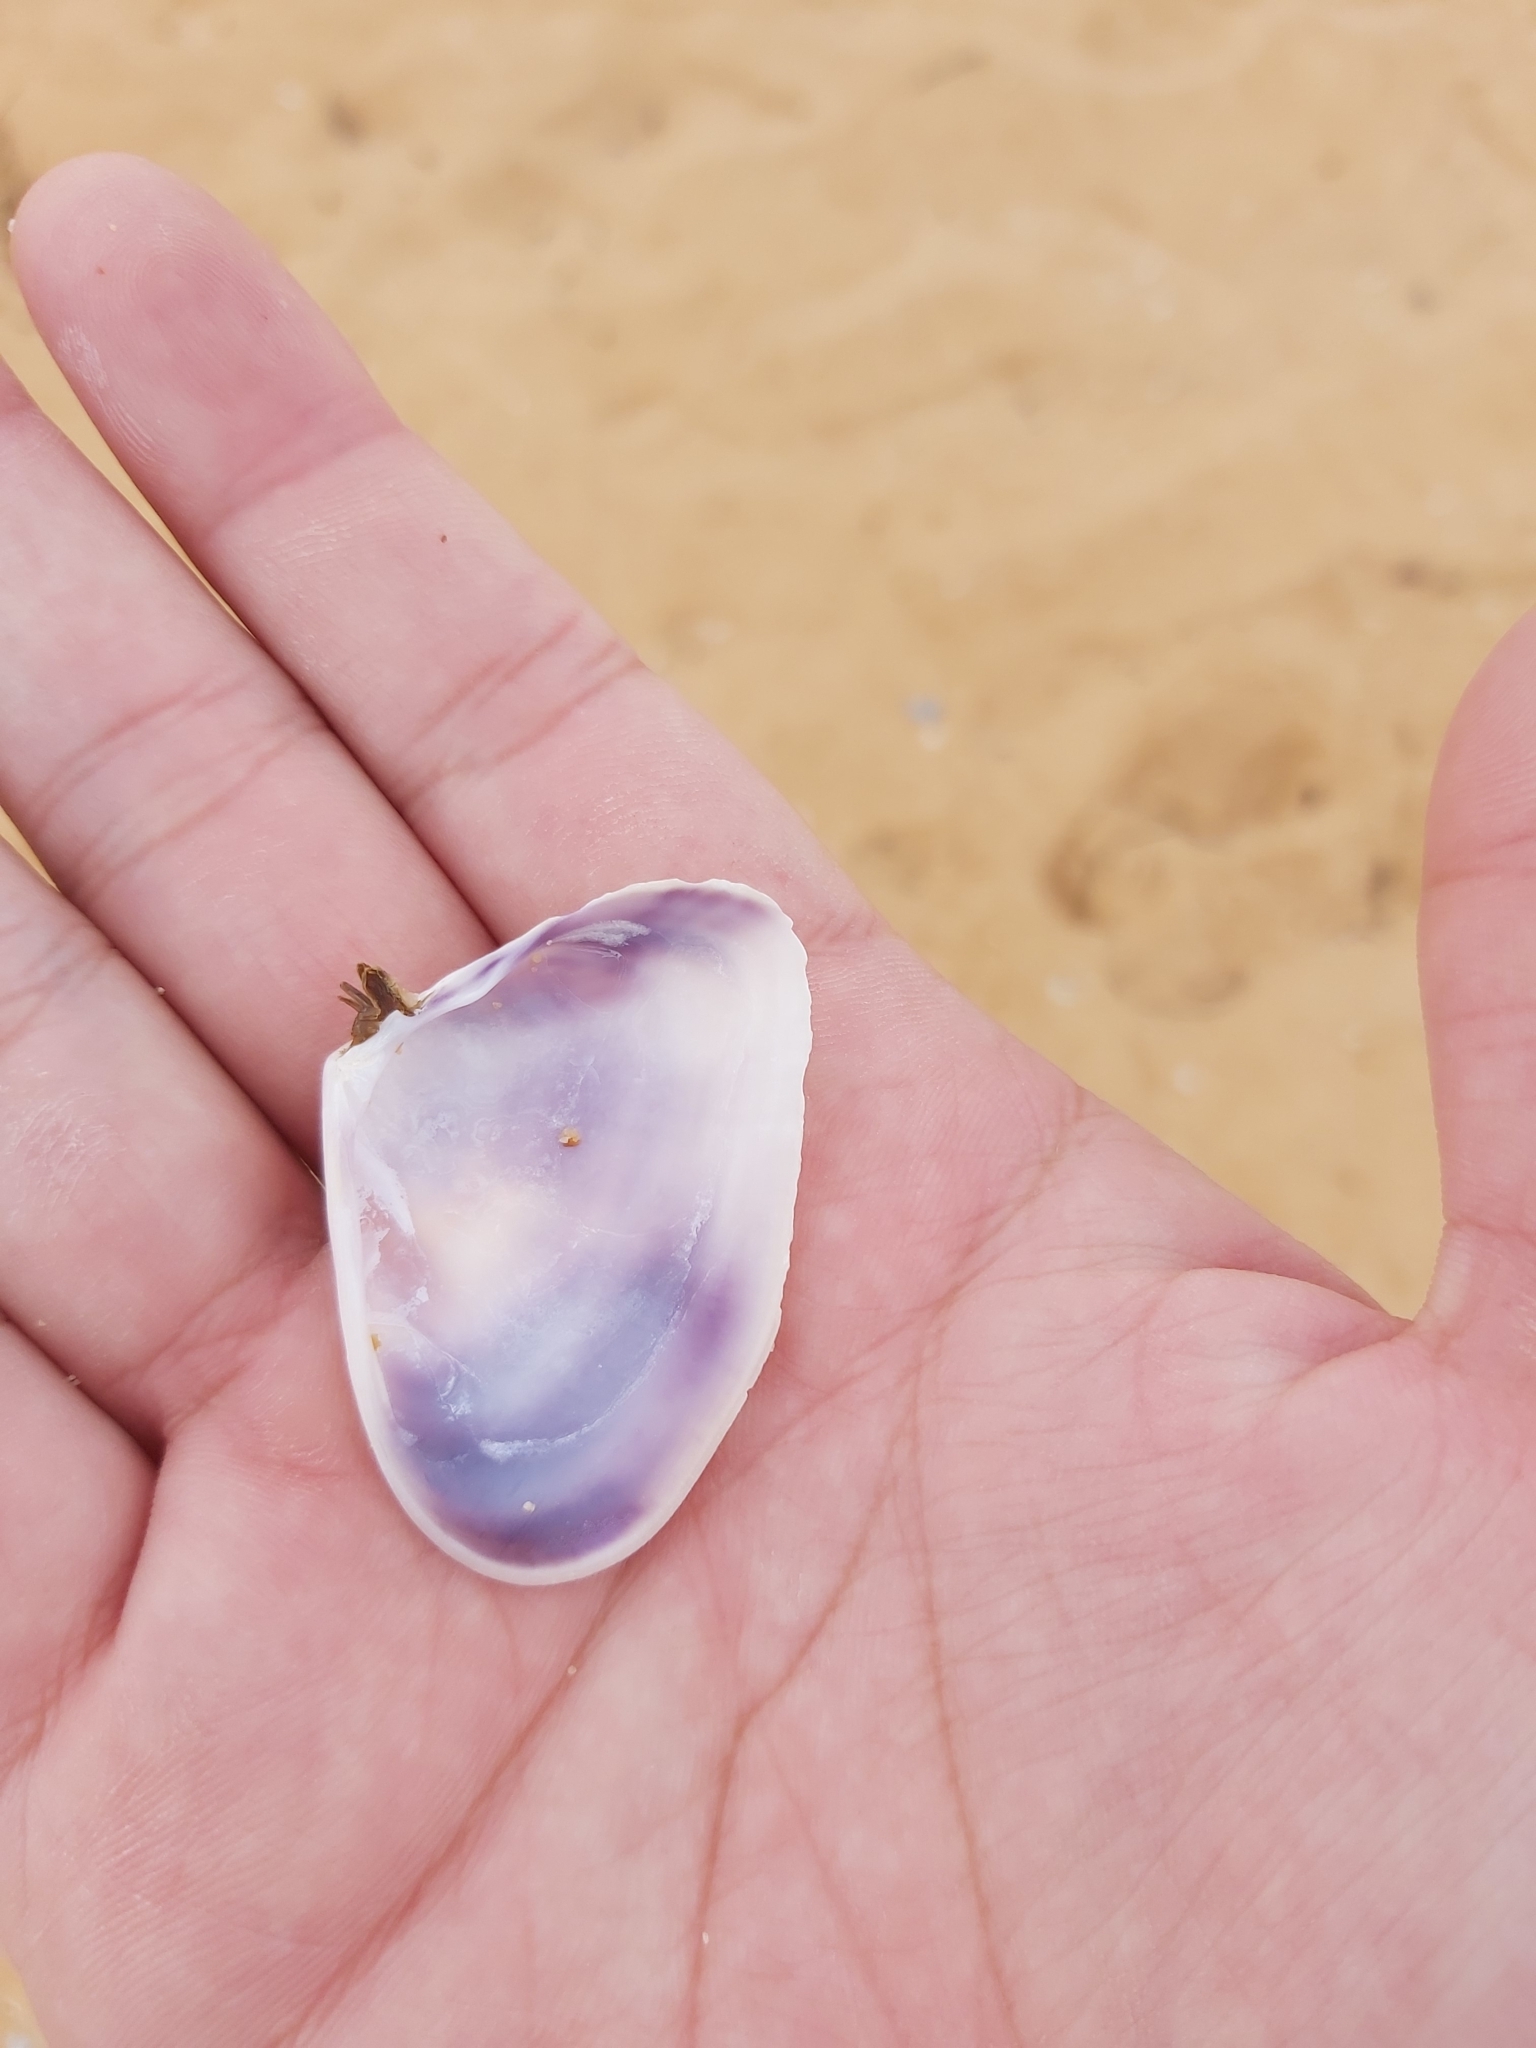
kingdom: Animalia
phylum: Mollusca
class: Bivalvia
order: Cardiida
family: Donacidae
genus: Latona
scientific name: Latona deltoides
